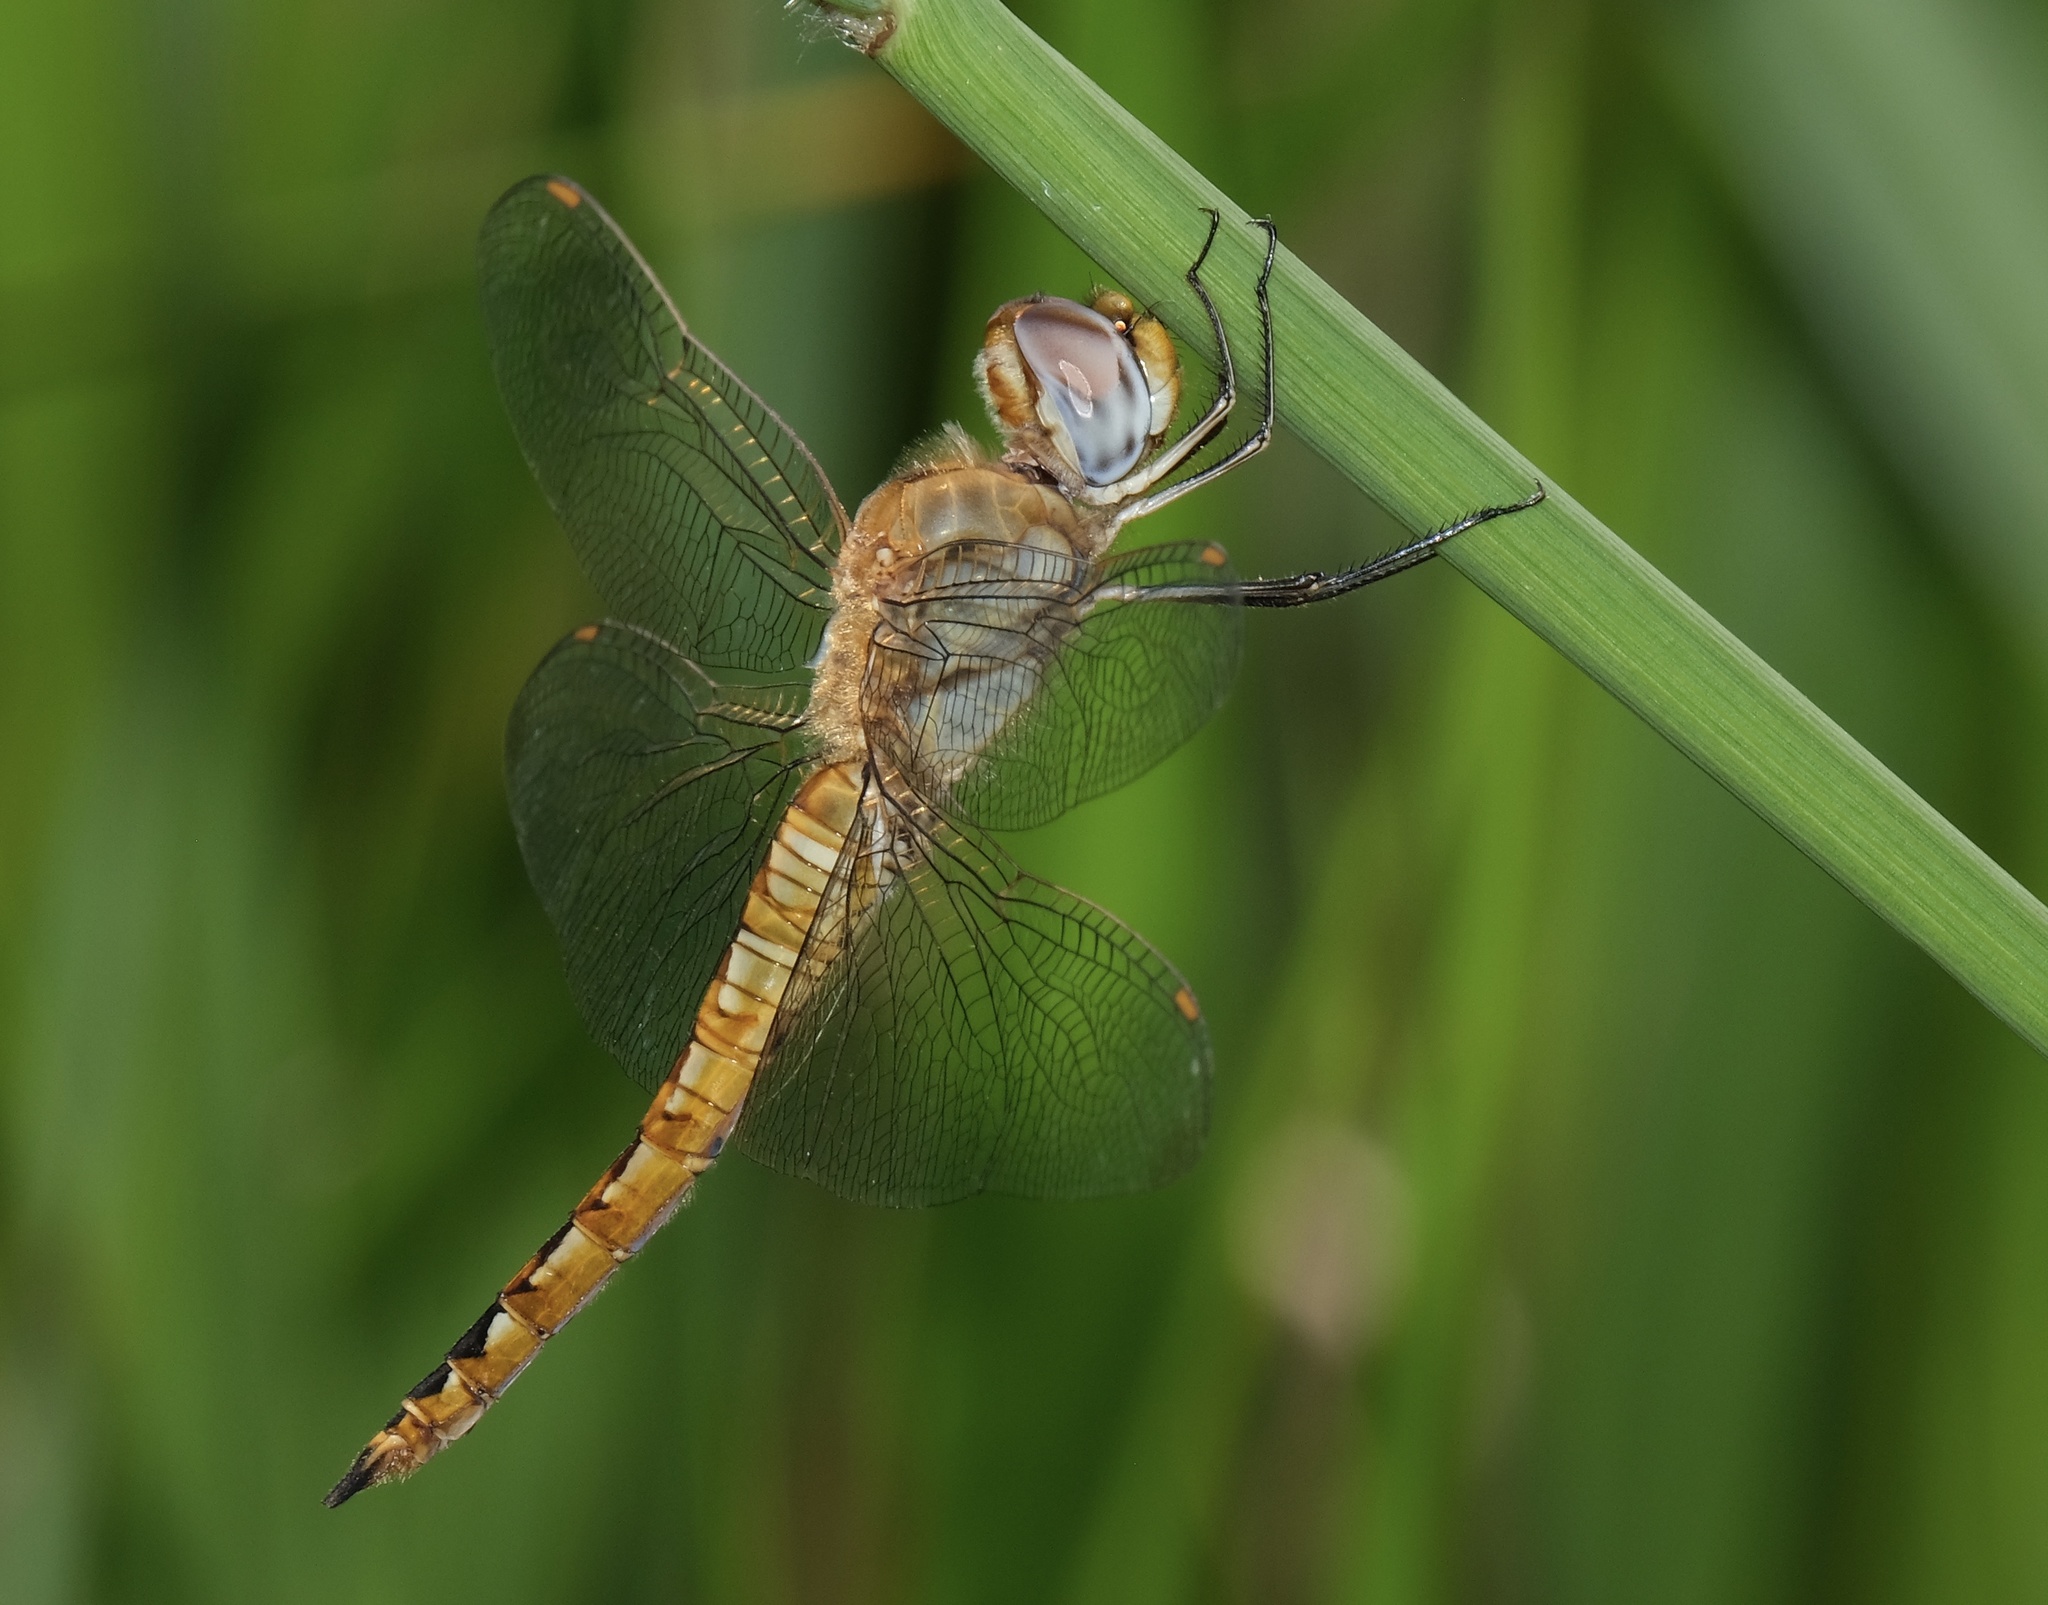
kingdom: Animalia
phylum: Arthropoda
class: Insecta
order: Odonata
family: Libellulidae
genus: Pantala
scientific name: Pantala flavescens
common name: Wandering glider
